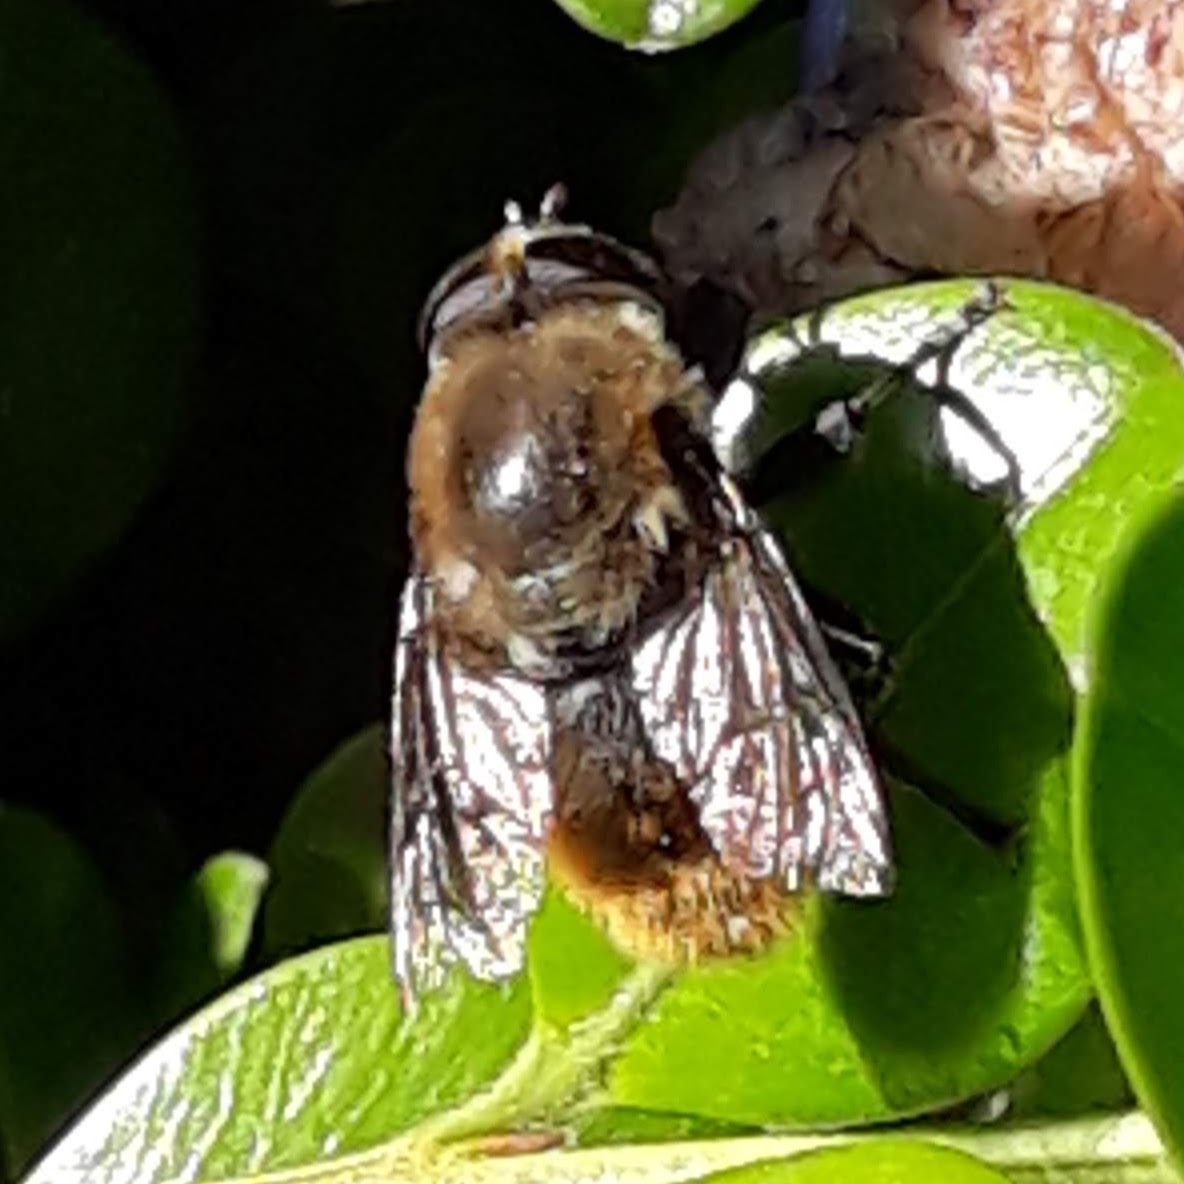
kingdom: Animalia
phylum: Arthropoda
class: Insecta
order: Diptera
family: Syrphidae
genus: Merodon
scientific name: Merodon equestris
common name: Greater bulb-fly
